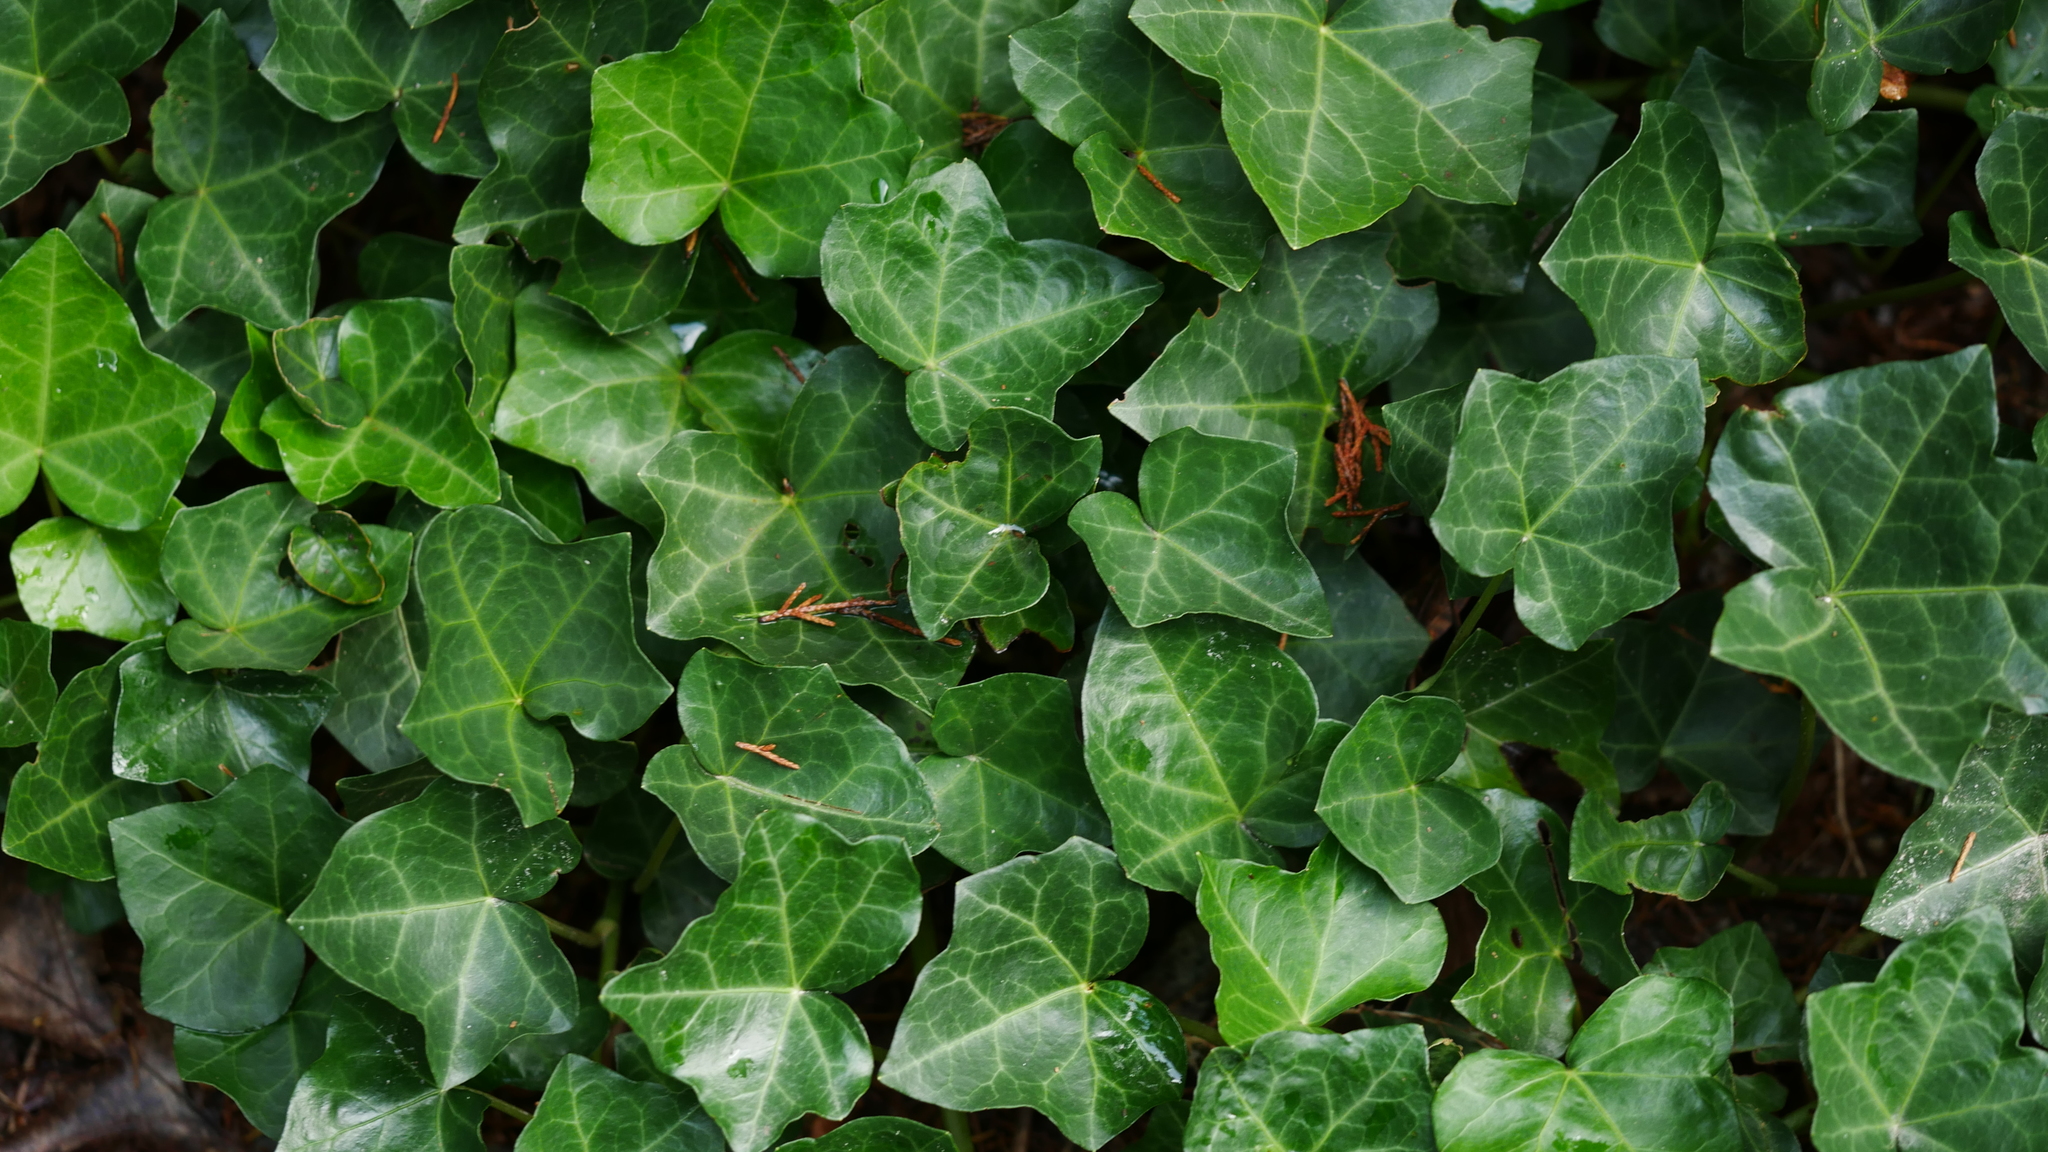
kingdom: Plantae
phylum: Tracheophyta
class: Magnoliopsida
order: Apiales
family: Araliaceae
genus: Hedera
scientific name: Hedera helix
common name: Ivy
